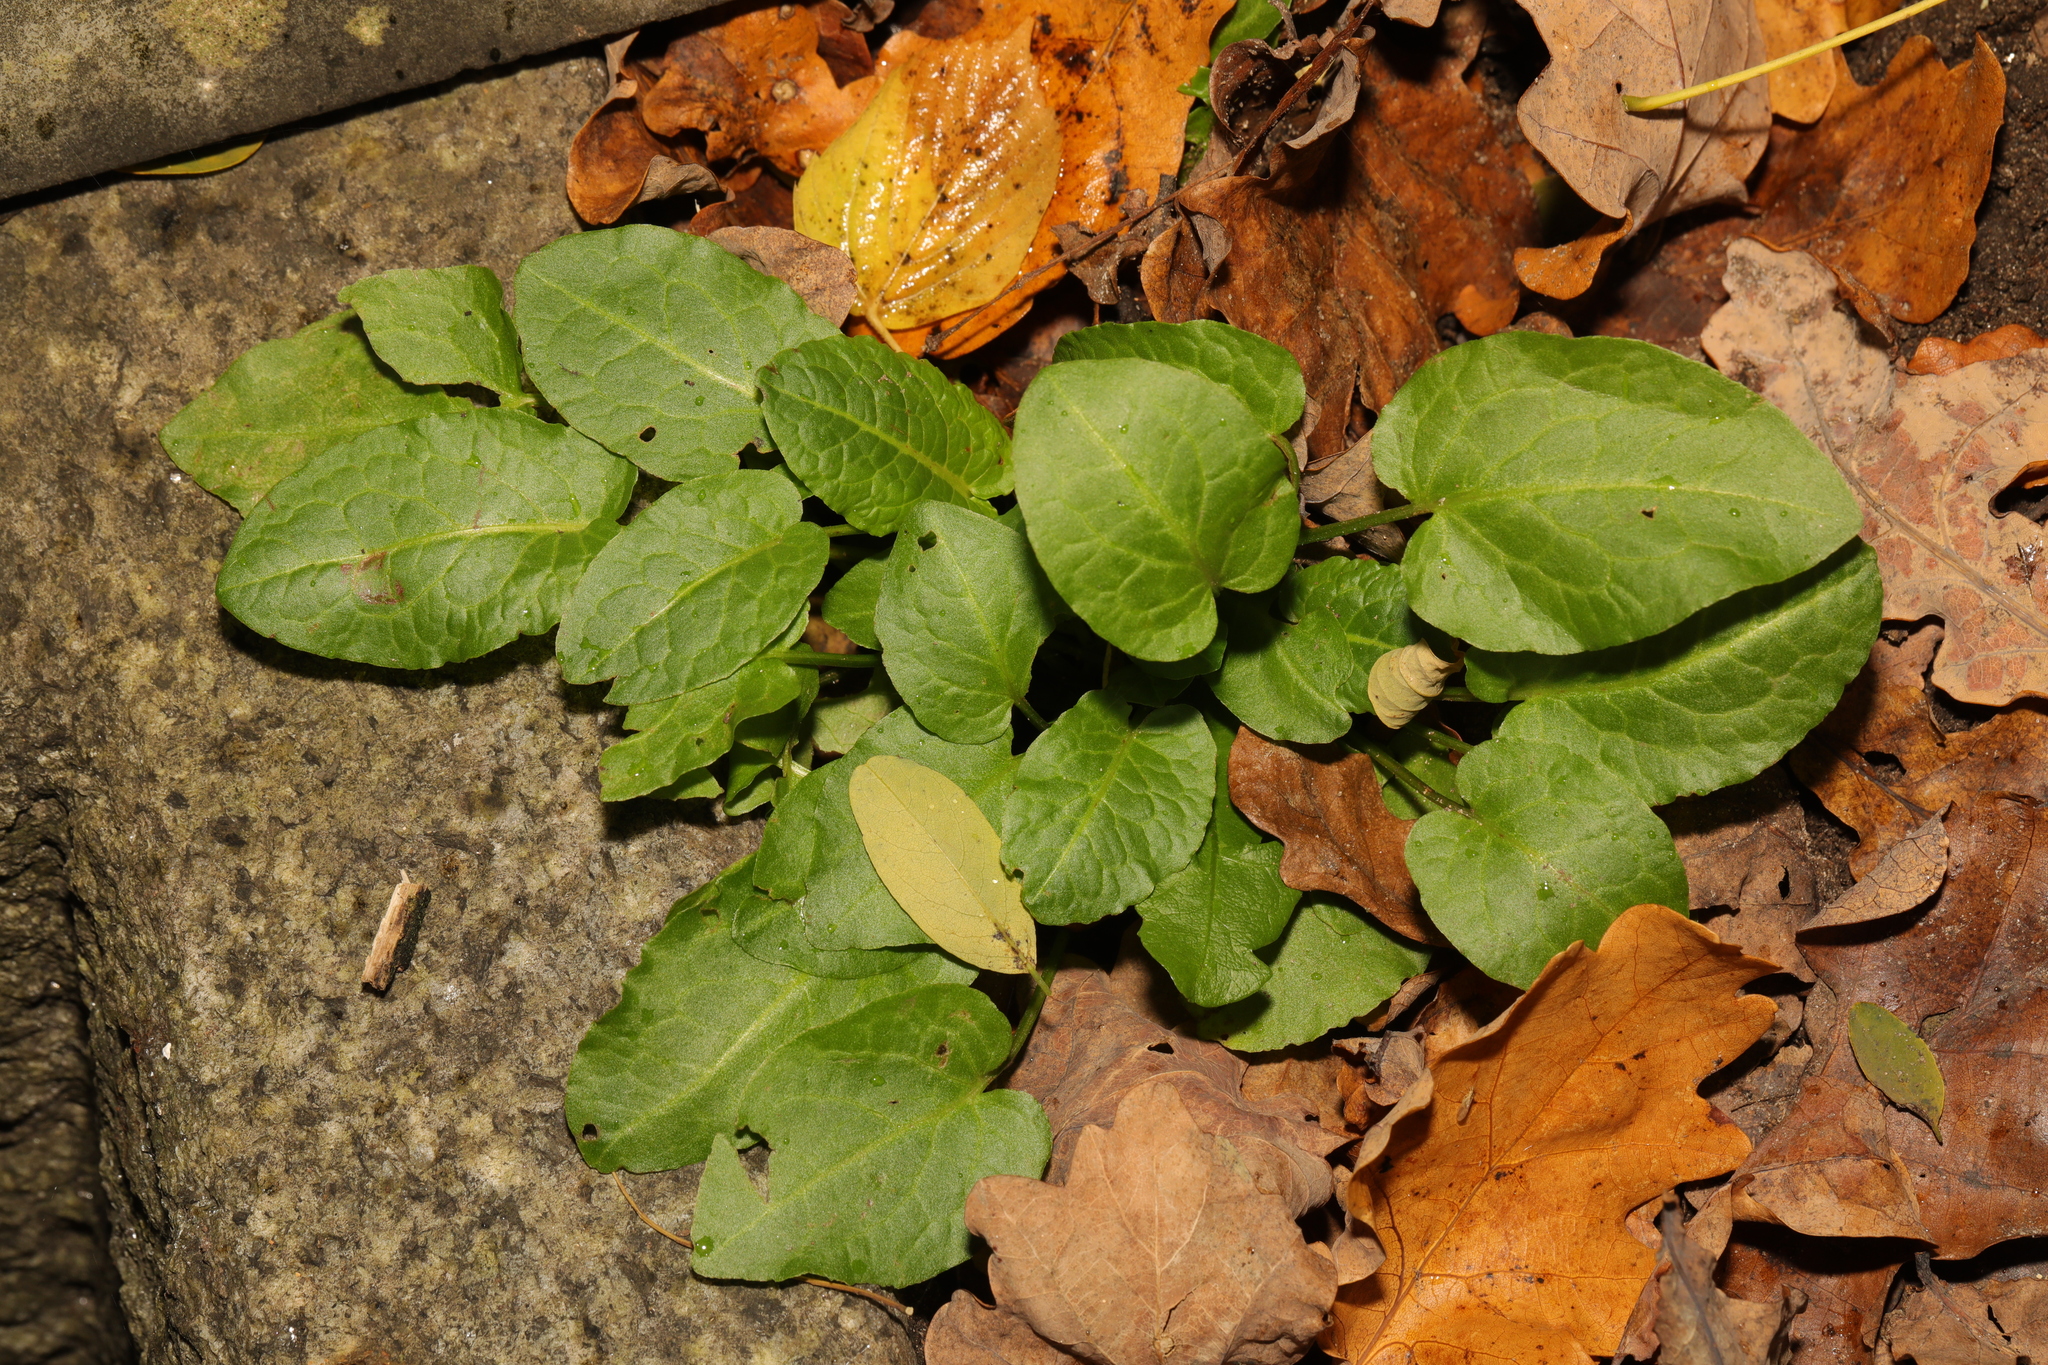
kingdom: Plantae
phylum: Tracheophyta
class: Magnoliopsida
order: Lamiales
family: Lamiaceae
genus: Prunella
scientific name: Prunella vulgaris
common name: Heal-all
